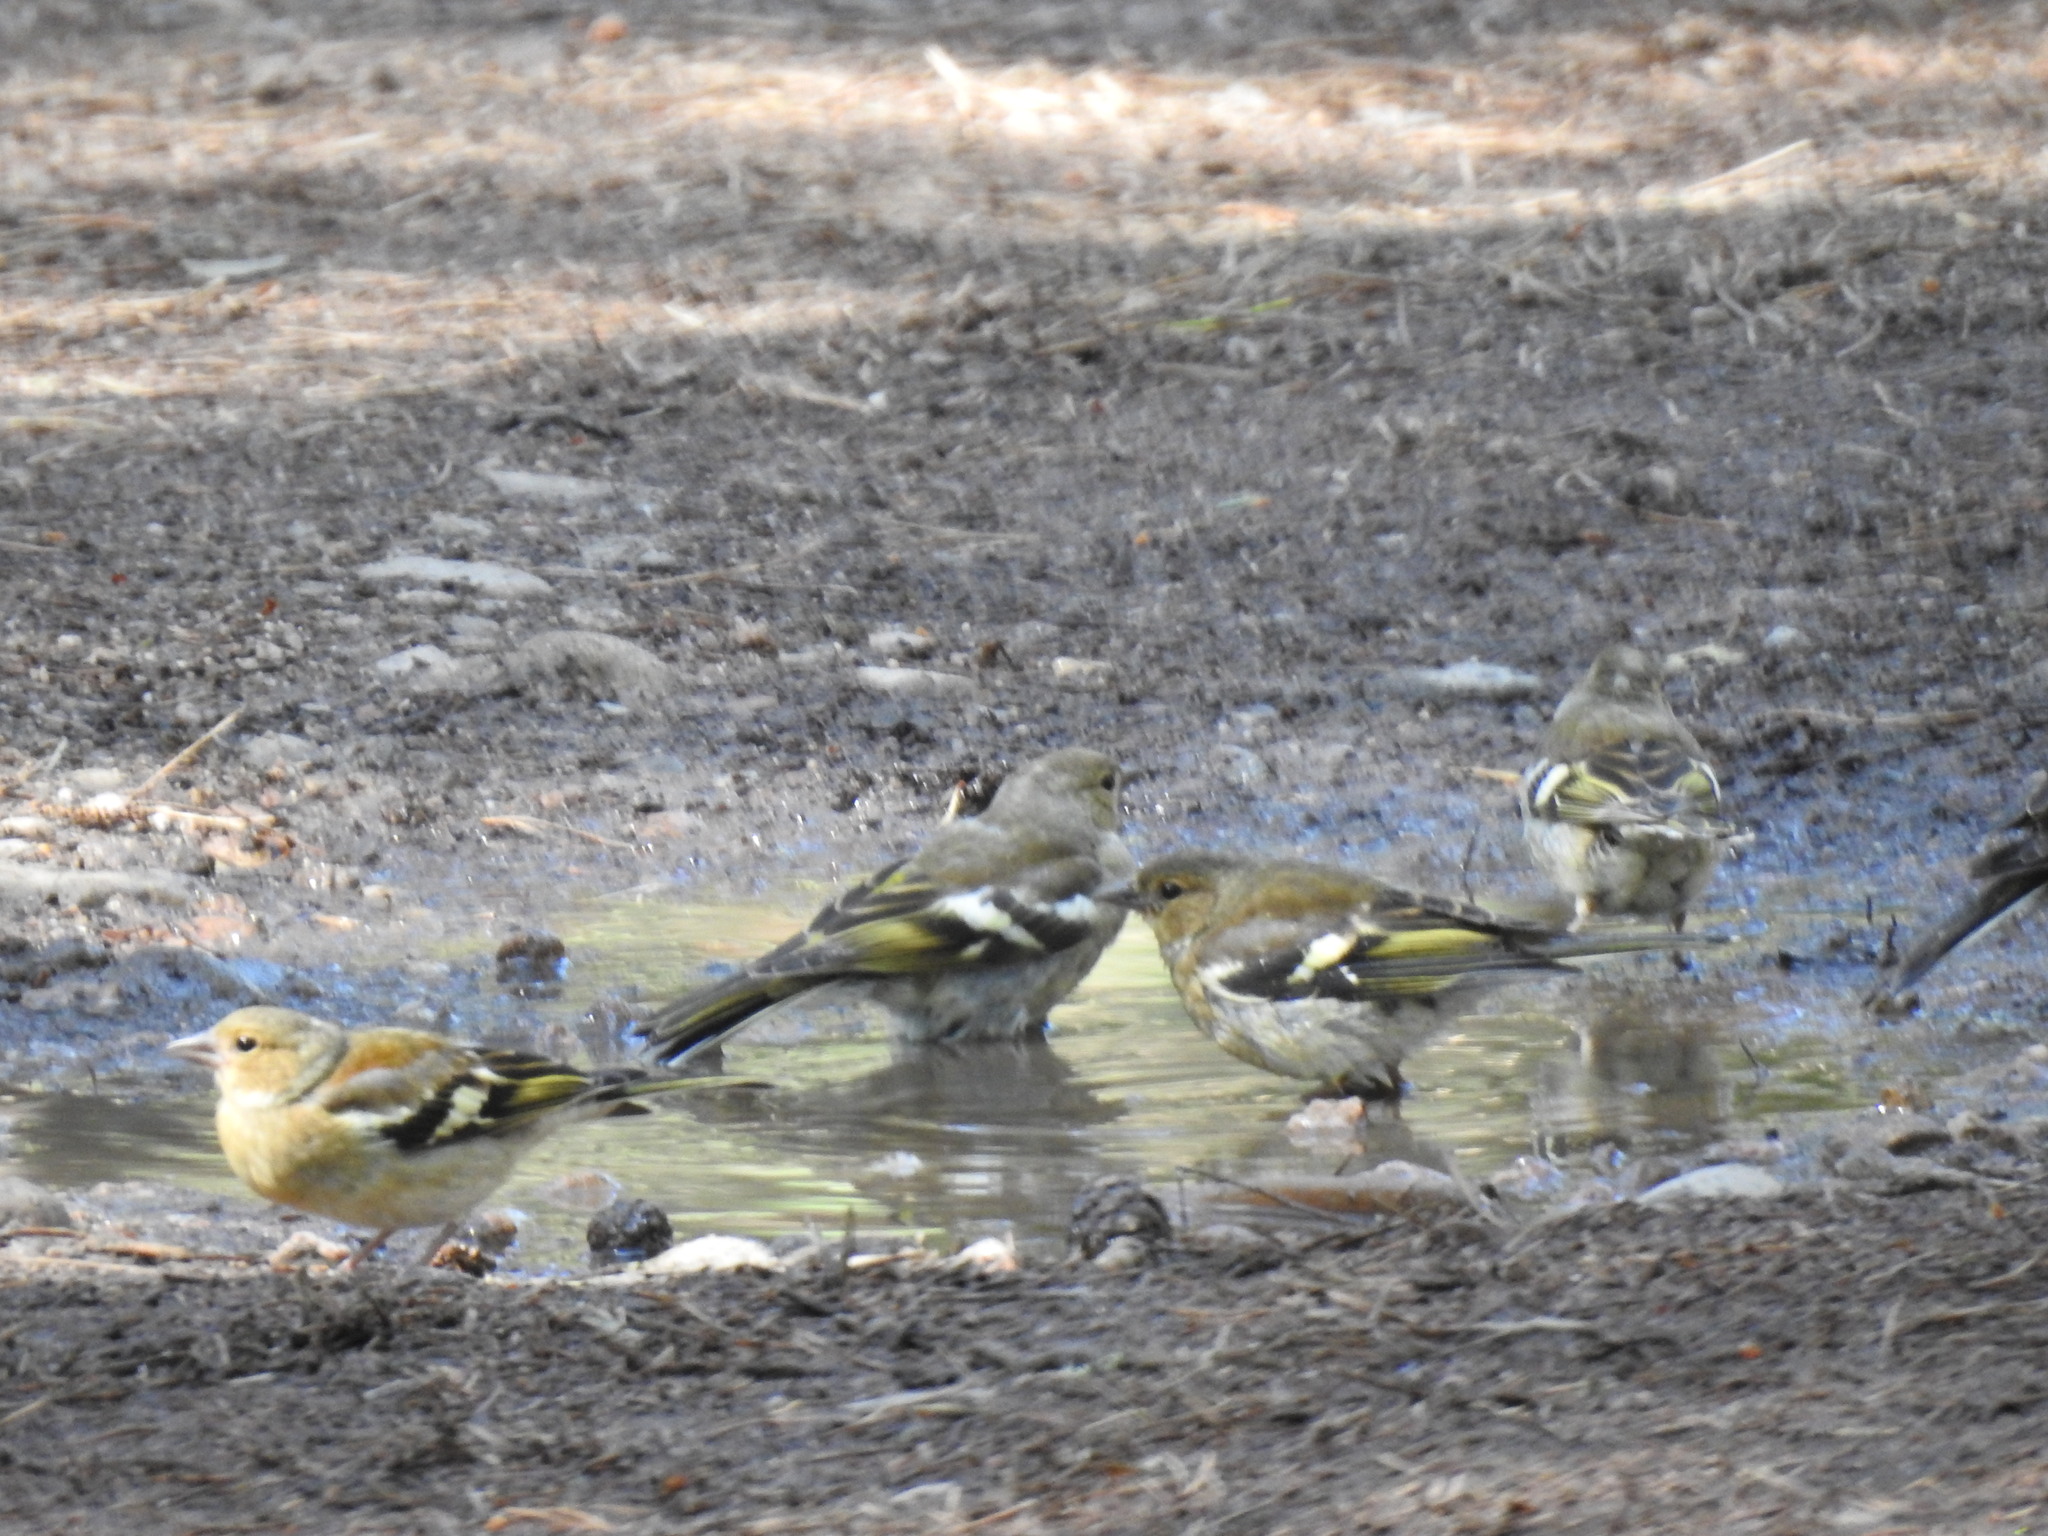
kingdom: Animalia
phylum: Chordata
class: Aves
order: Passeriformes
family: Fringillidae
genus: Fringilla
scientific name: Fringilla coelebs
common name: Common chaffinch
